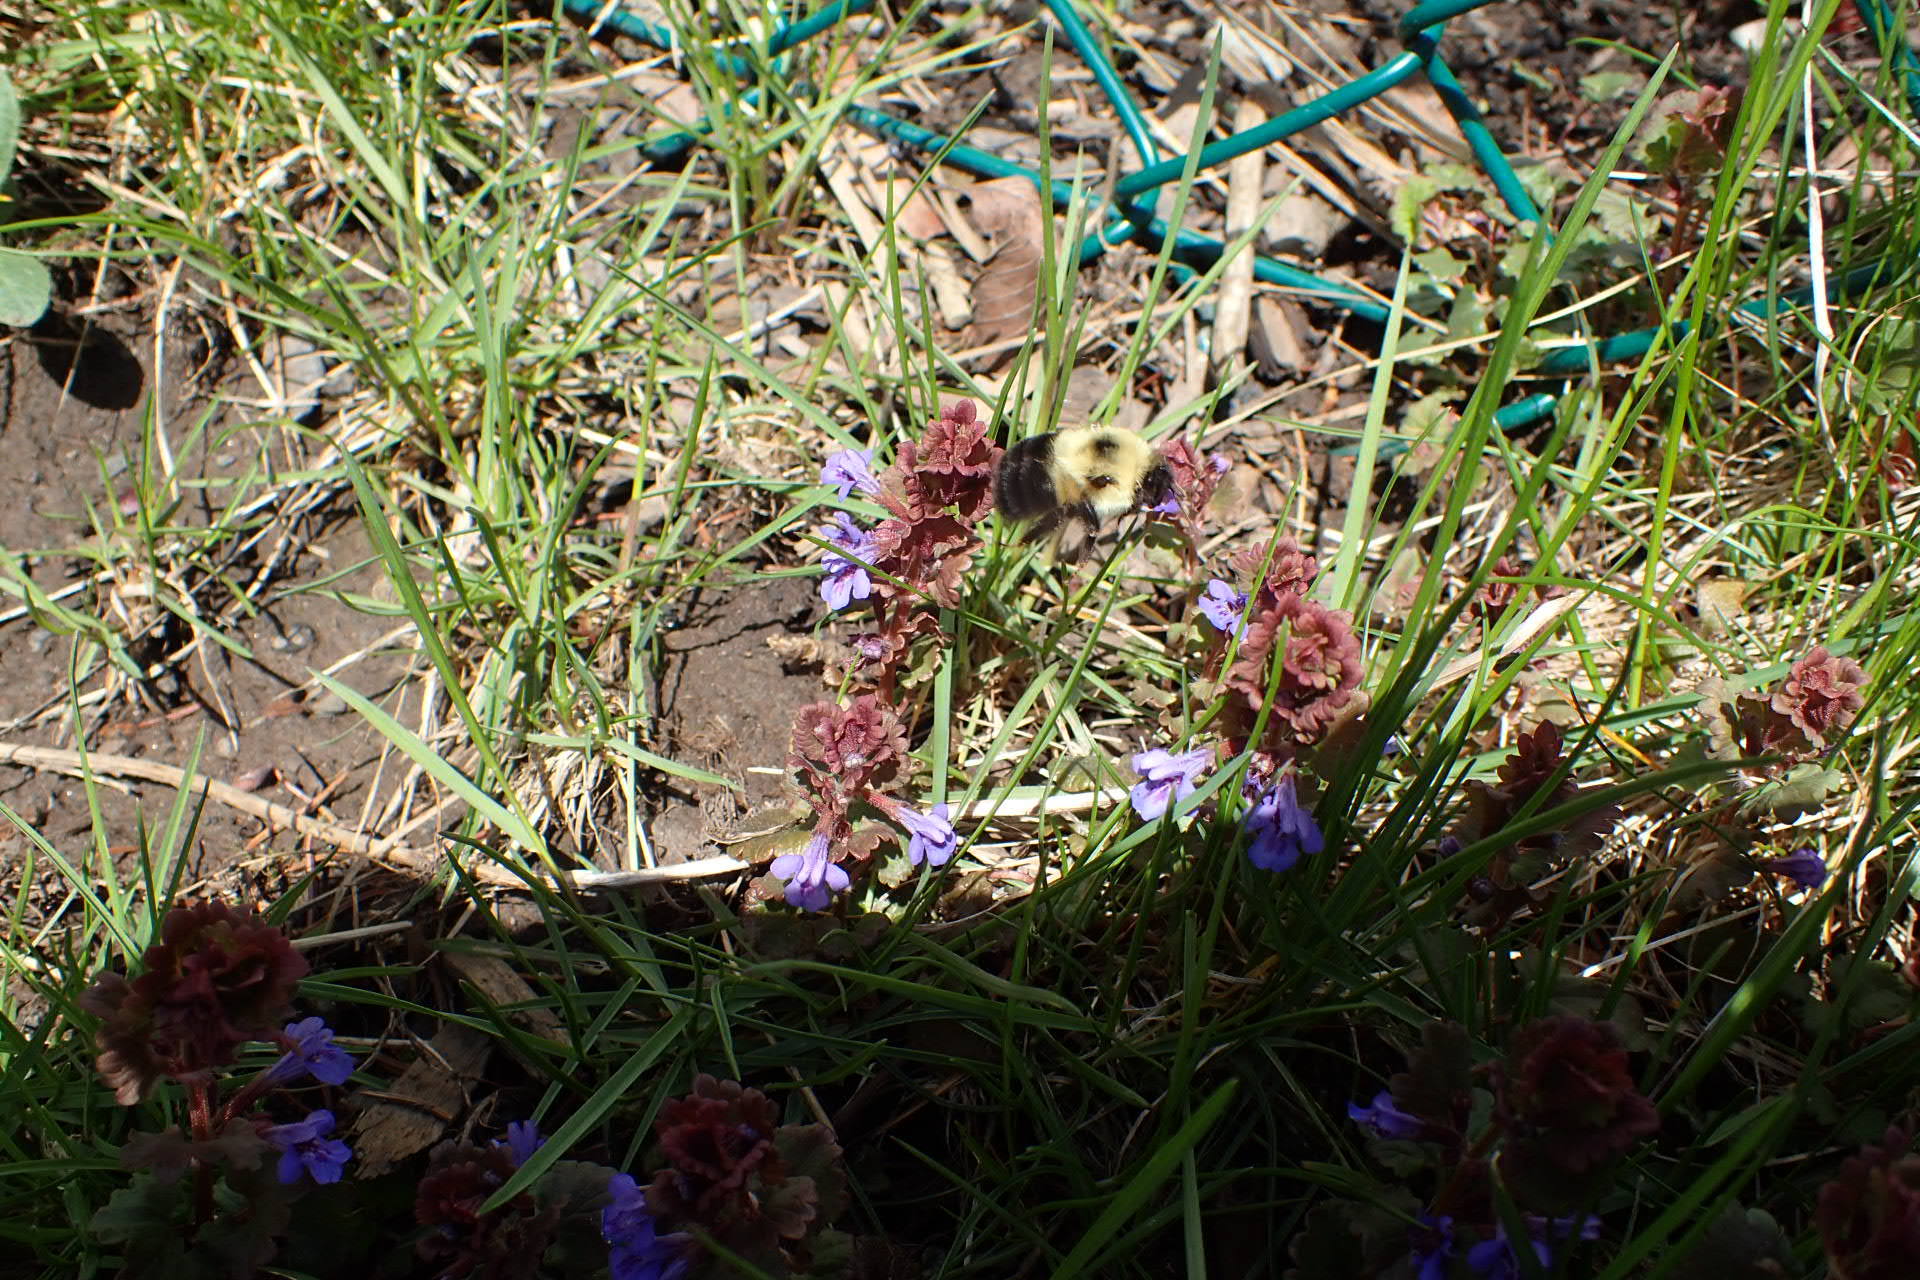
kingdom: Animalia
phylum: Arthropoda
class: Insecta
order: Hymenoptera
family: Apidae
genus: Bombus
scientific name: Bombus bimaculatus
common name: Two-spotted bumble bee
